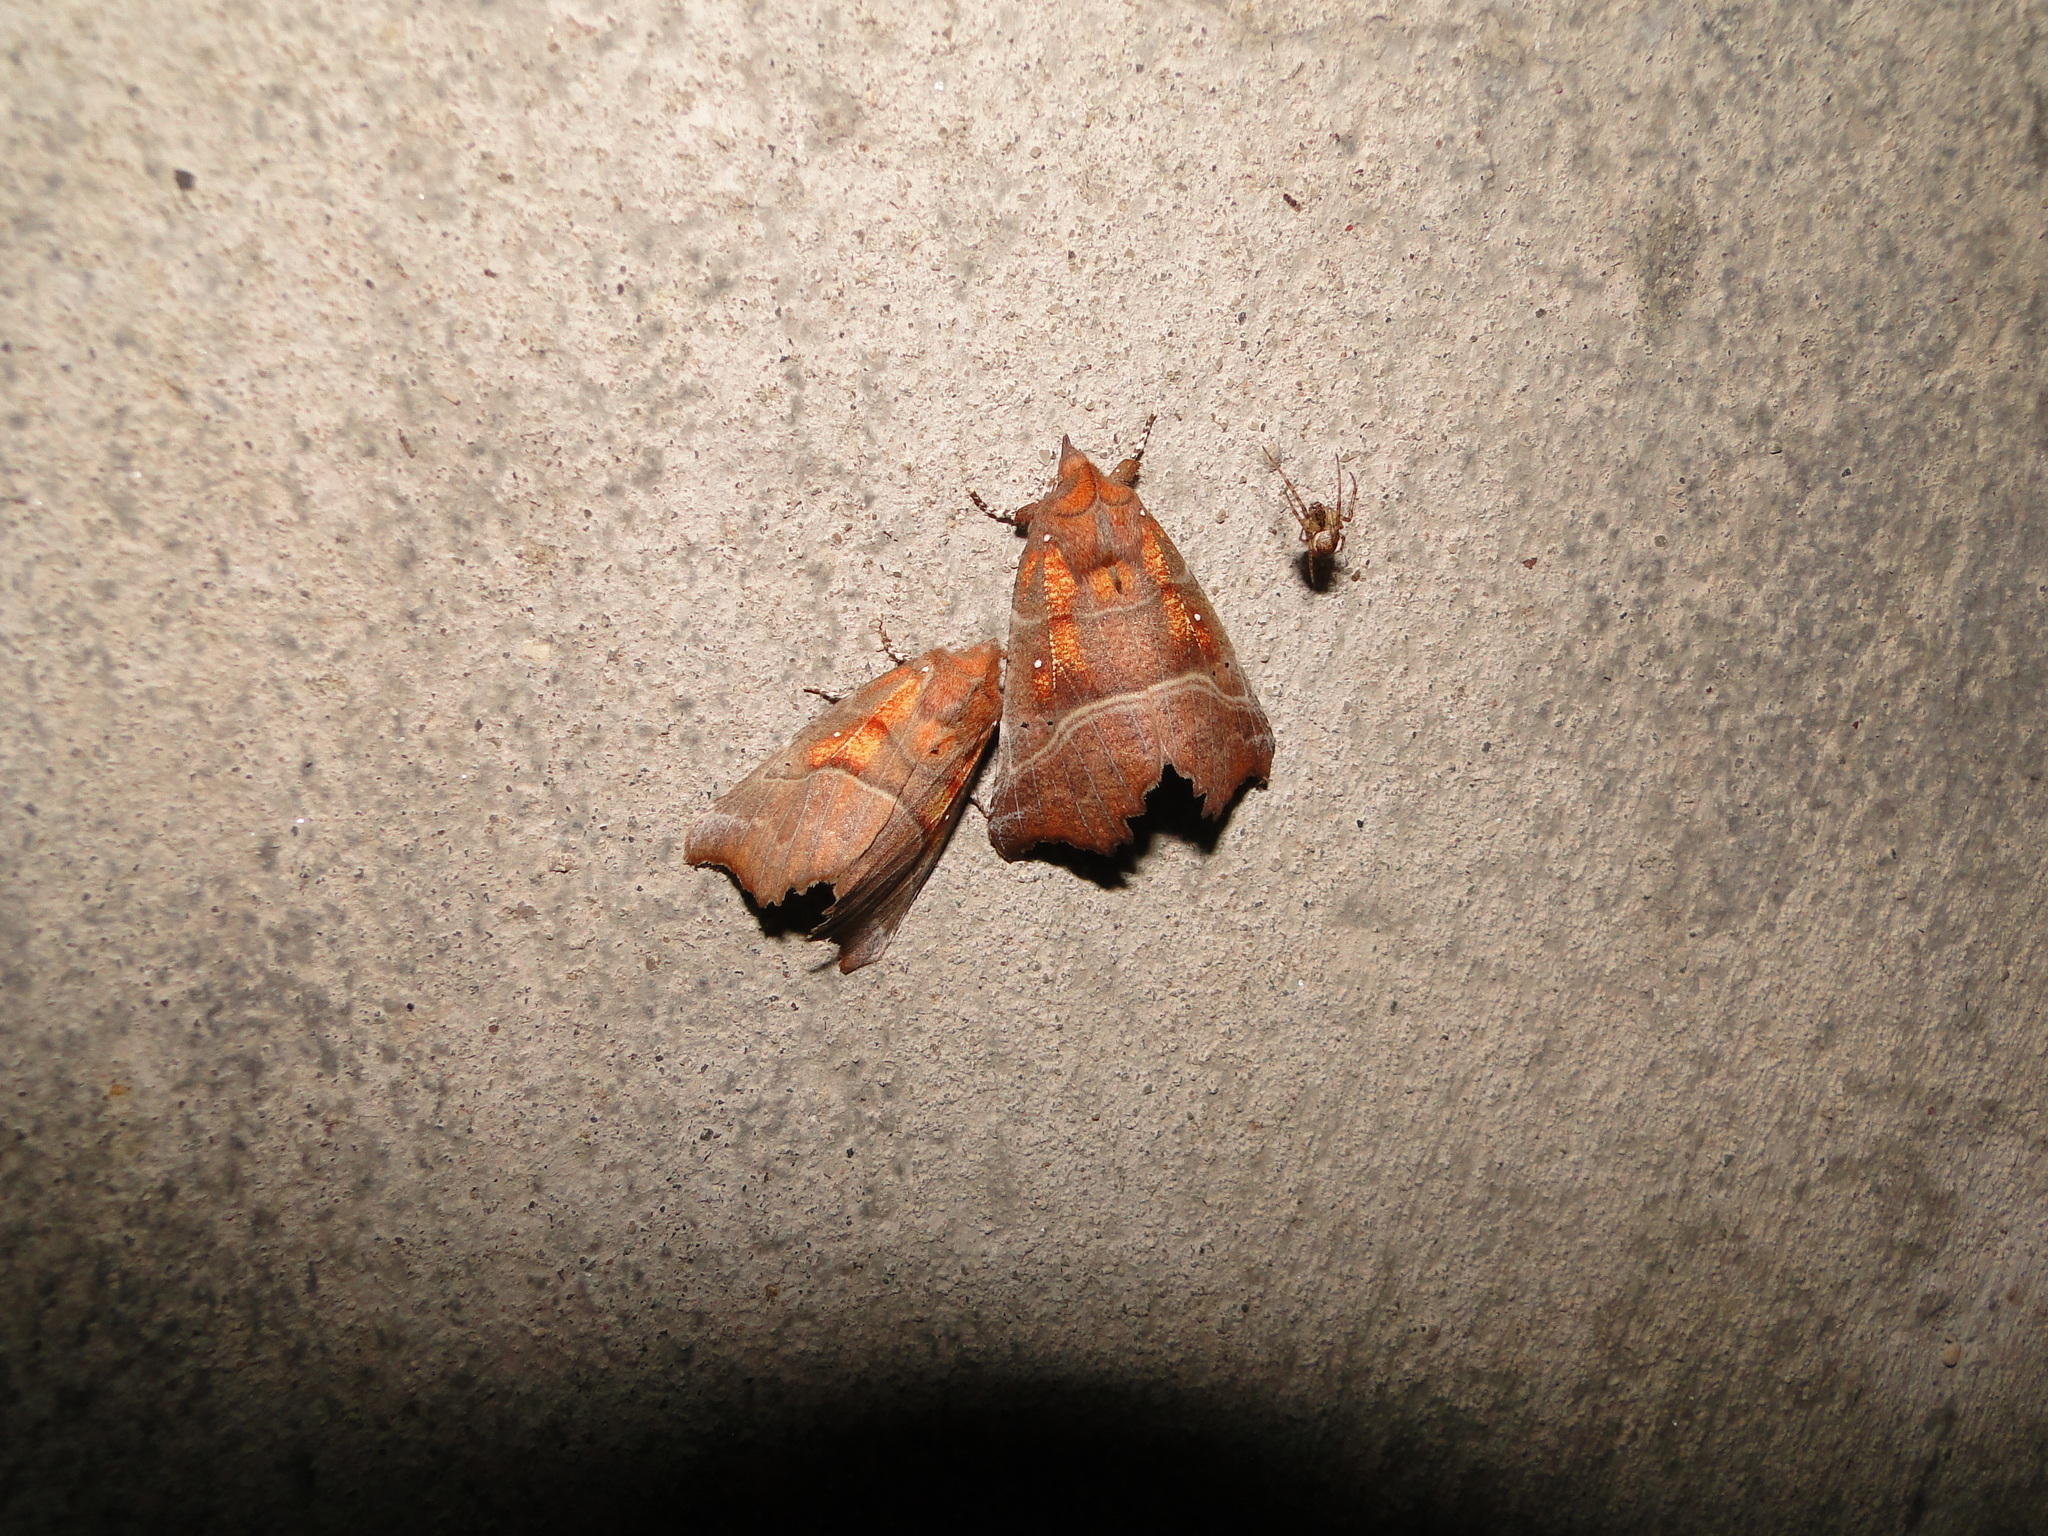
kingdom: Animalia
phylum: Arthropoda
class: Insecta
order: Lepidoptera
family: Erebidae
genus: Scoliopteryx
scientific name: Scoliopteryx libatrix
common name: Herald
